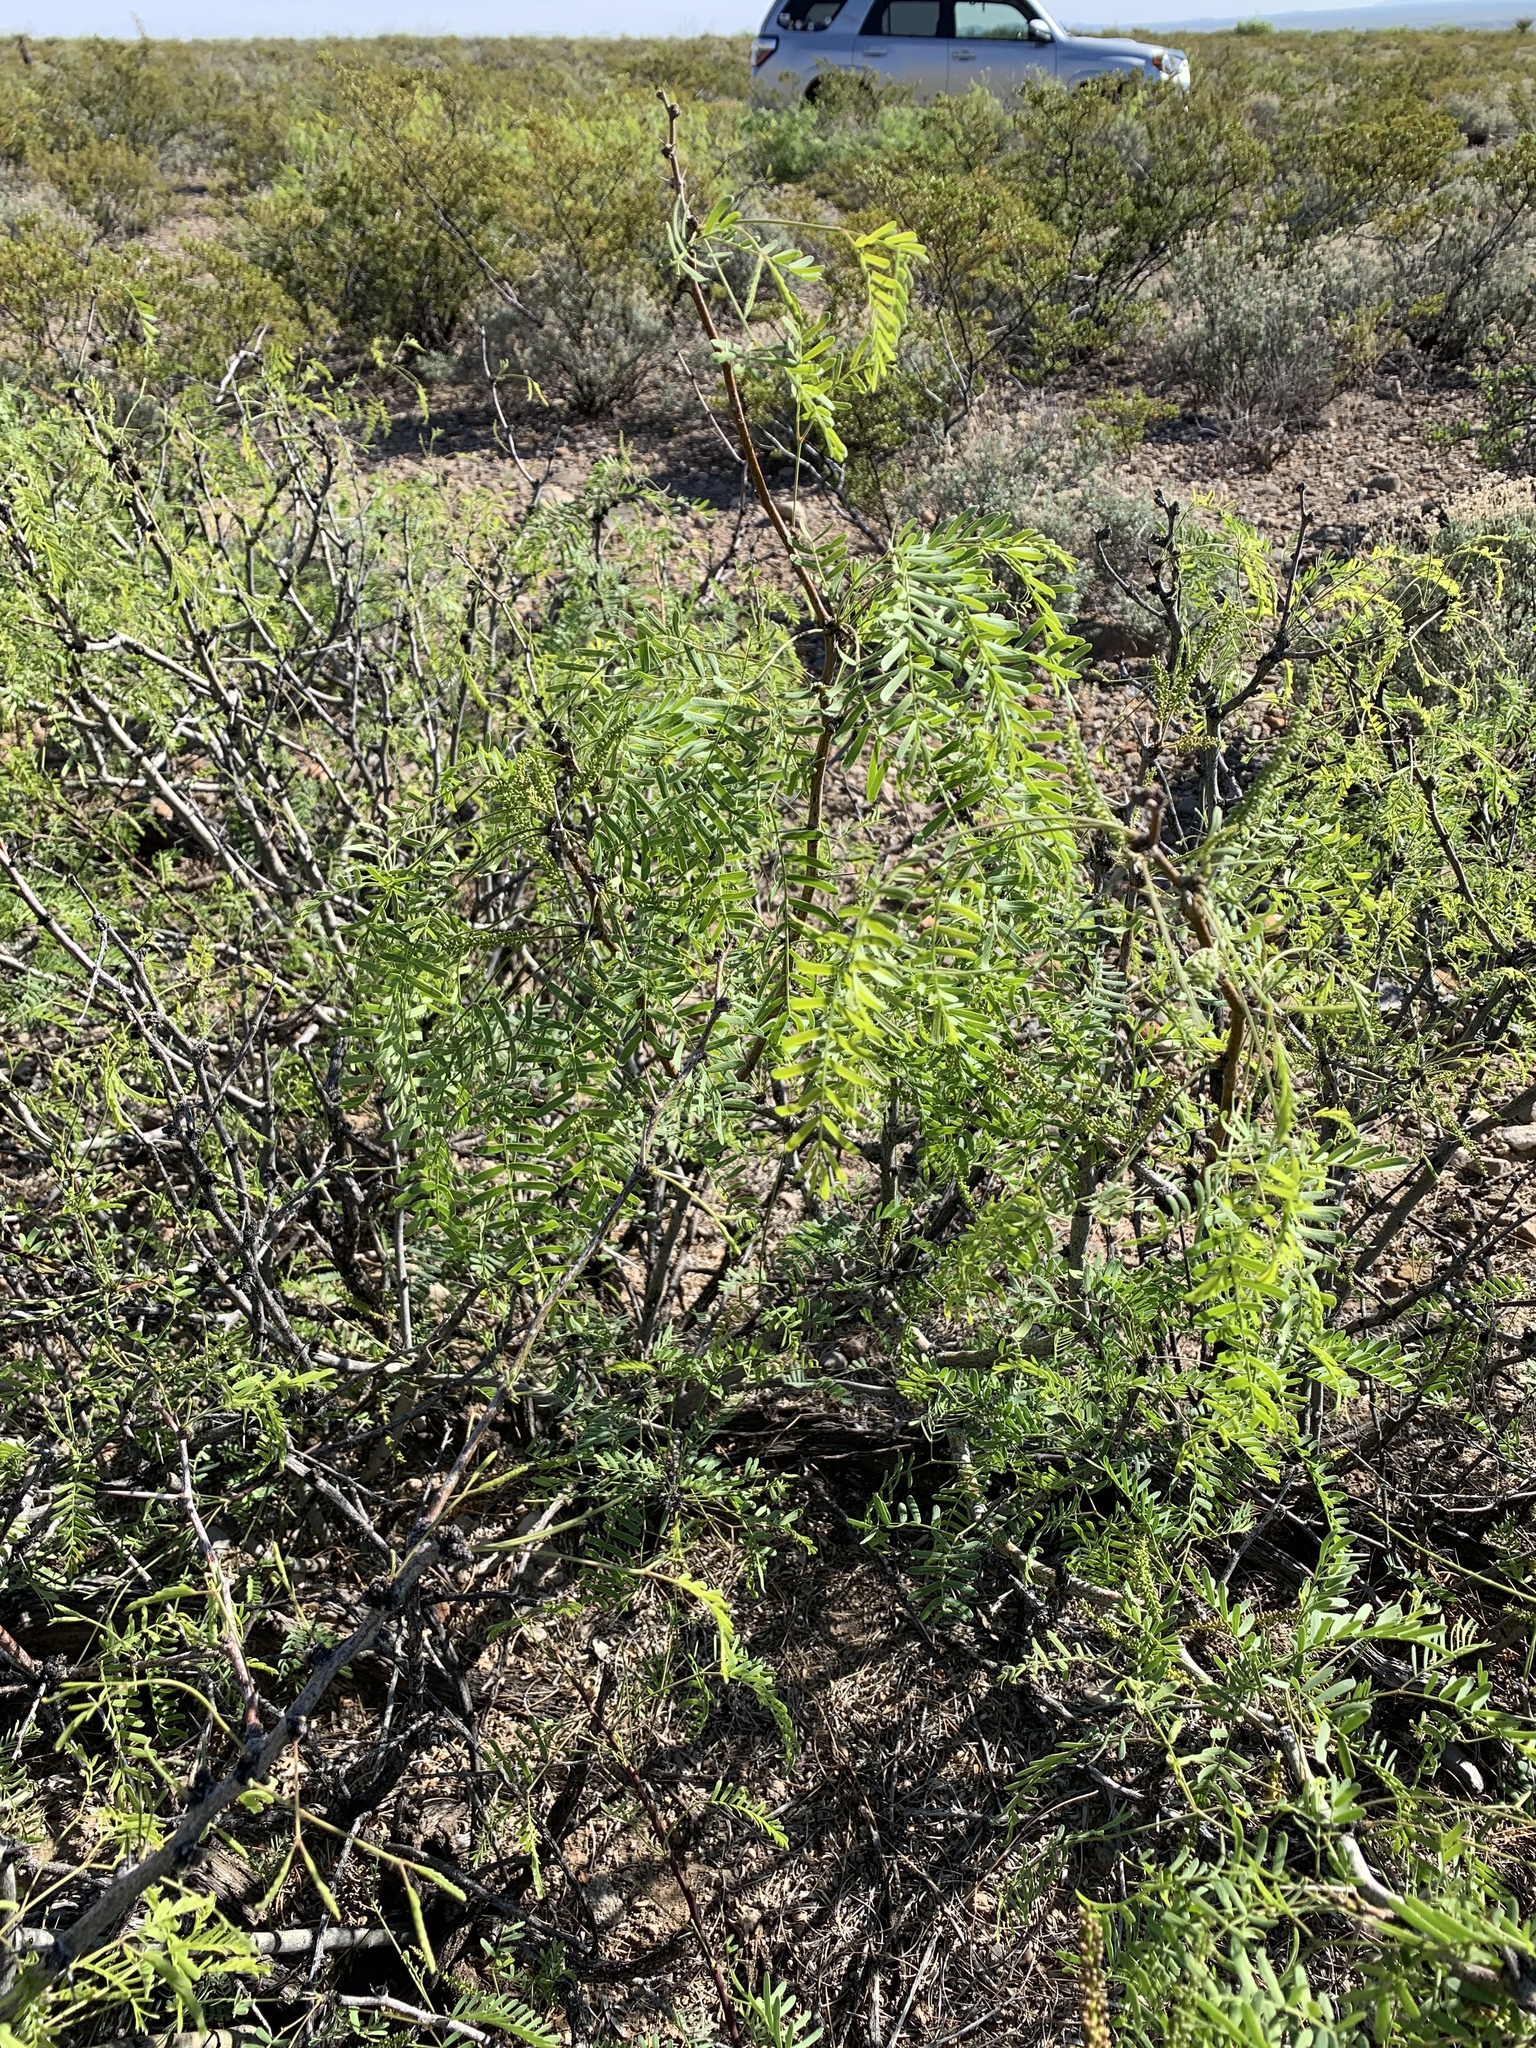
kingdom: Plantae
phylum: Tracheophyta
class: Magnoliopsida
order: Fabales
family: Fabaceae
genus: Prosopis
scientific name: Prosopis glandulosa
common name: Honey mesquite
